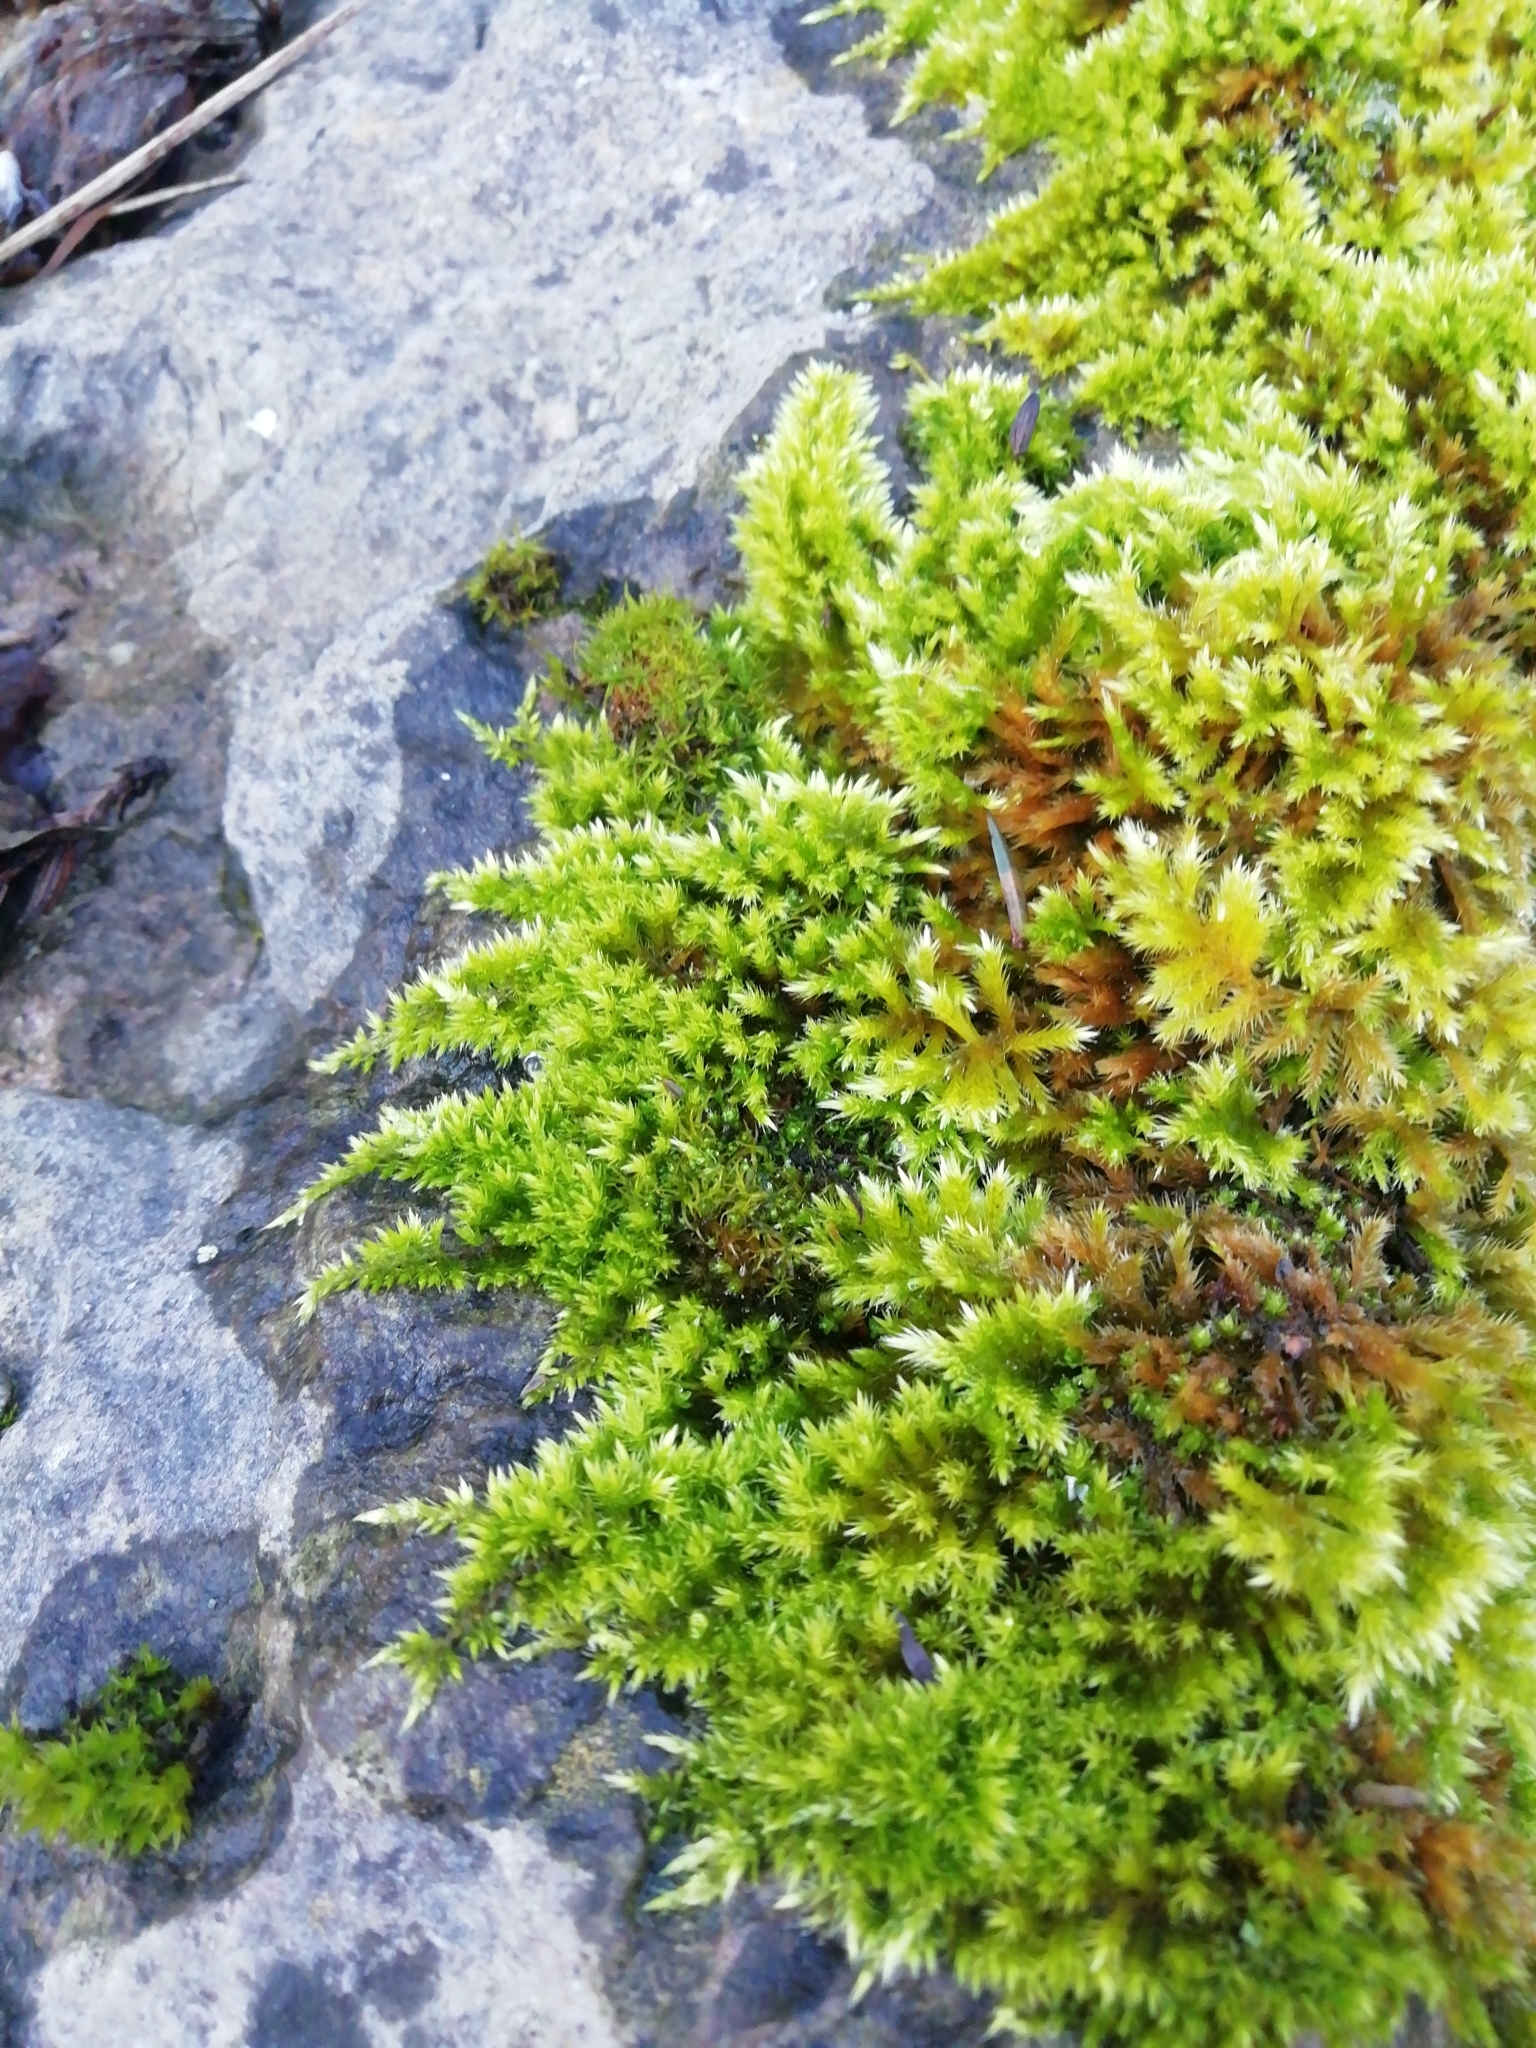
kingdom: Plantae
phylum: Bryophyta
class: Bryopsida
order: Hypnales
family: Brachytheciaceae
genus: Homalothecium
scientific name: Homalothecium sericeum
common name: Silky wall feather-moss
